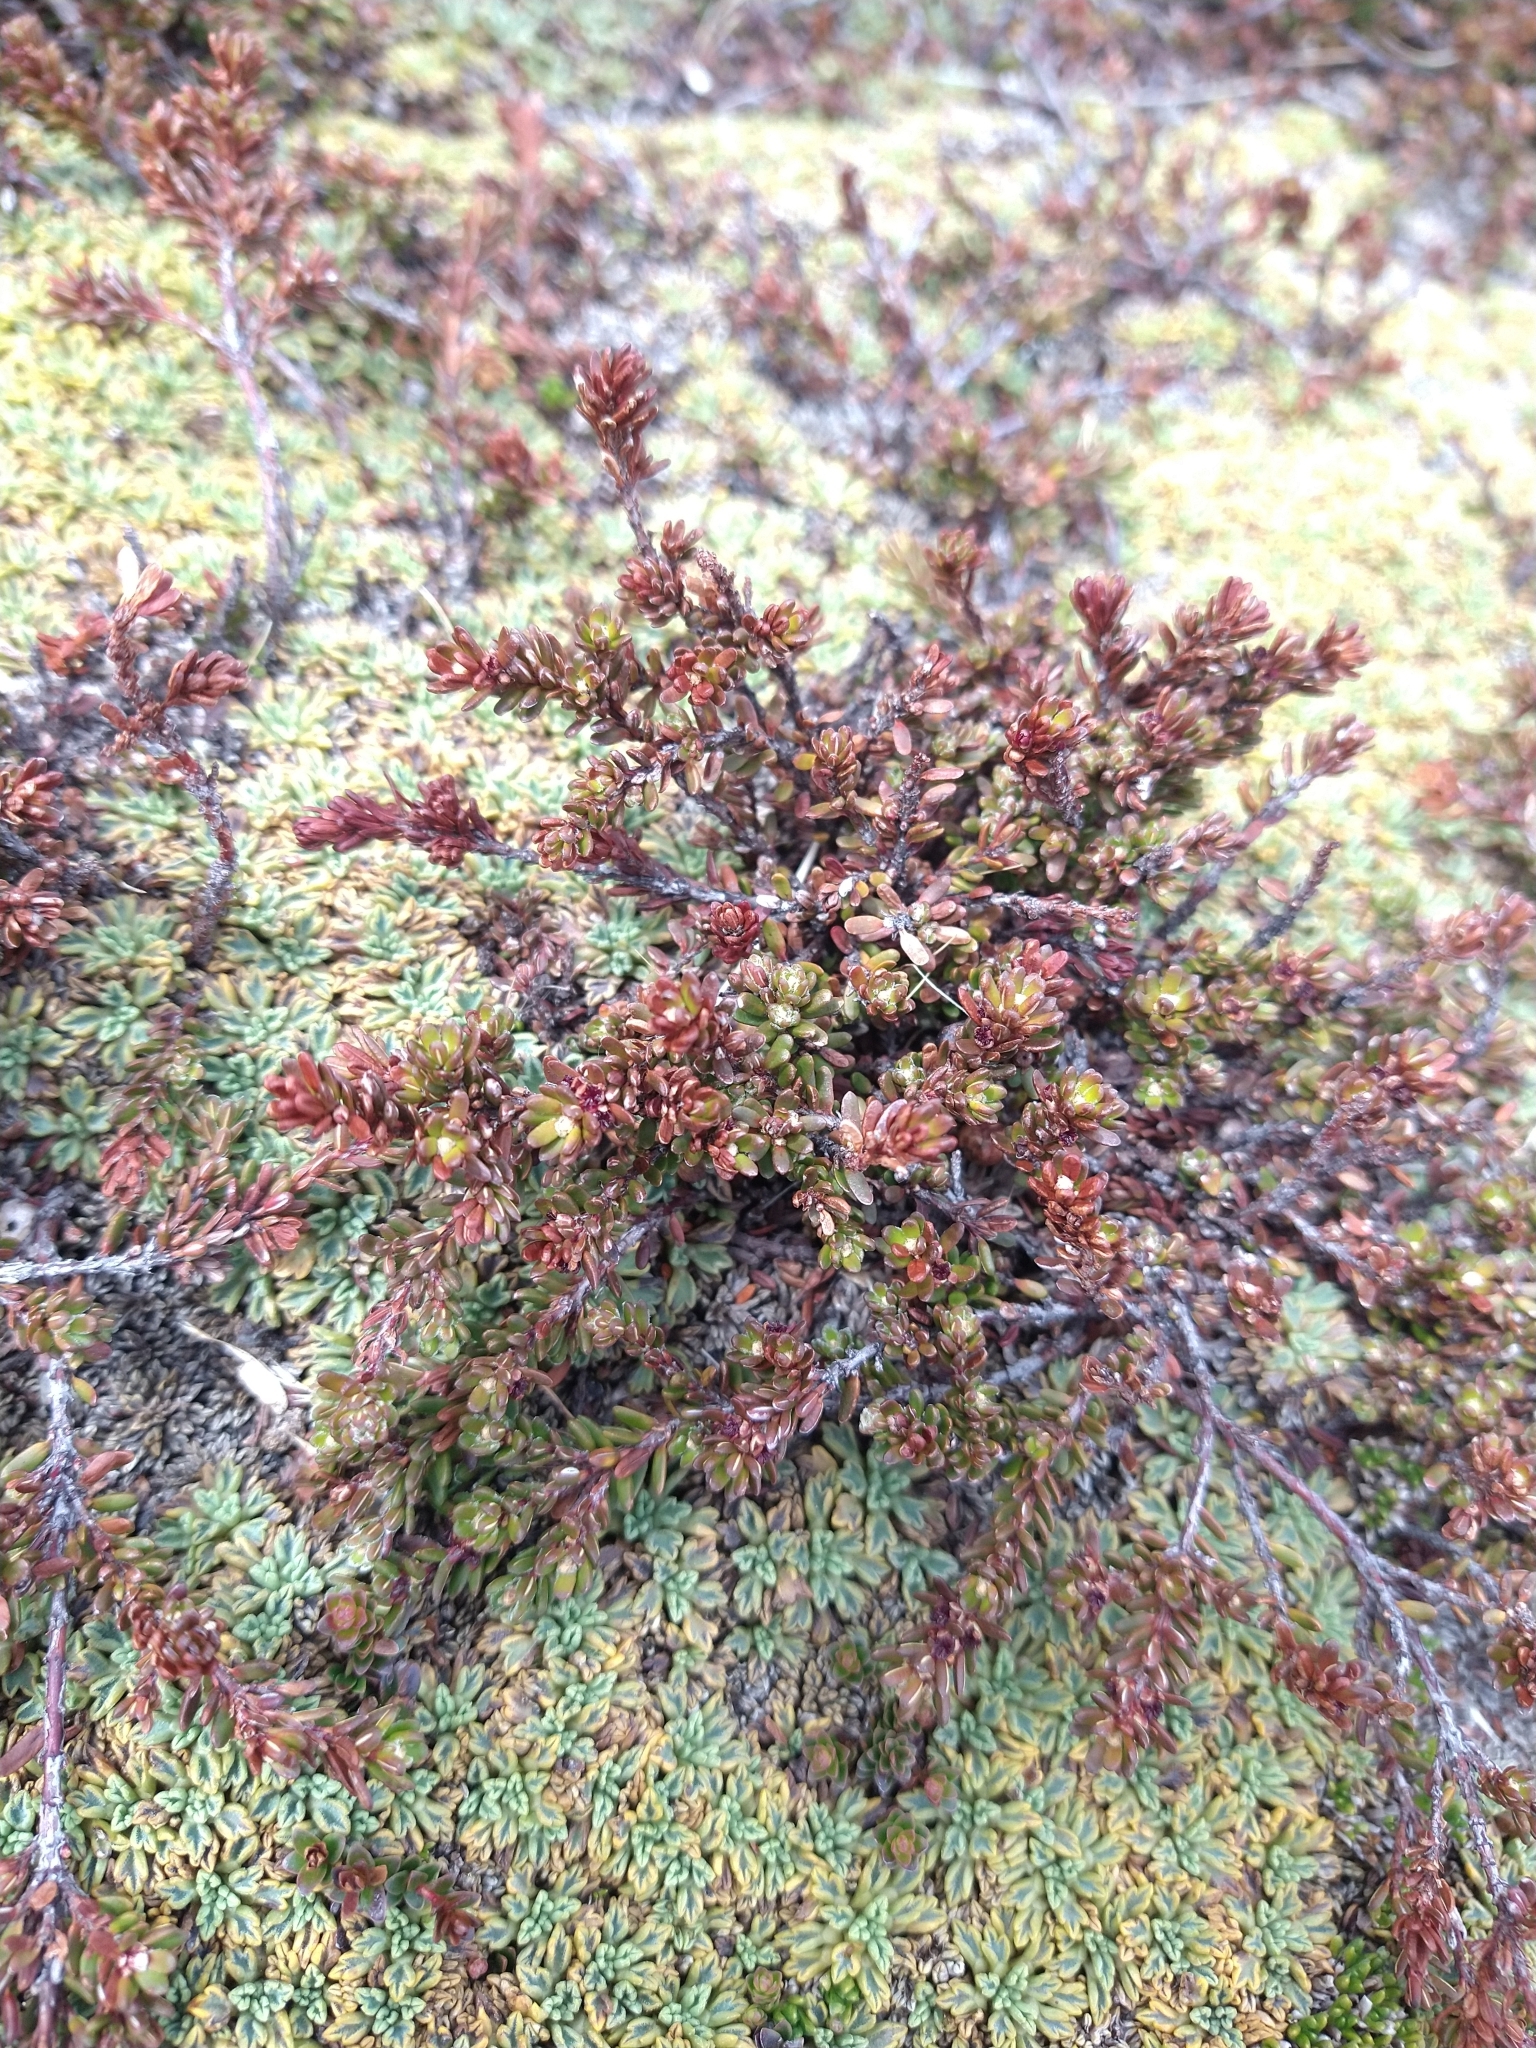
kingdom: Plantae
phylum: Tracheophyta
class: Magnoliopsida
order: Ericales
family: Ericaceae
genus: Empetrum
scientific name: Empetrum rubrum
